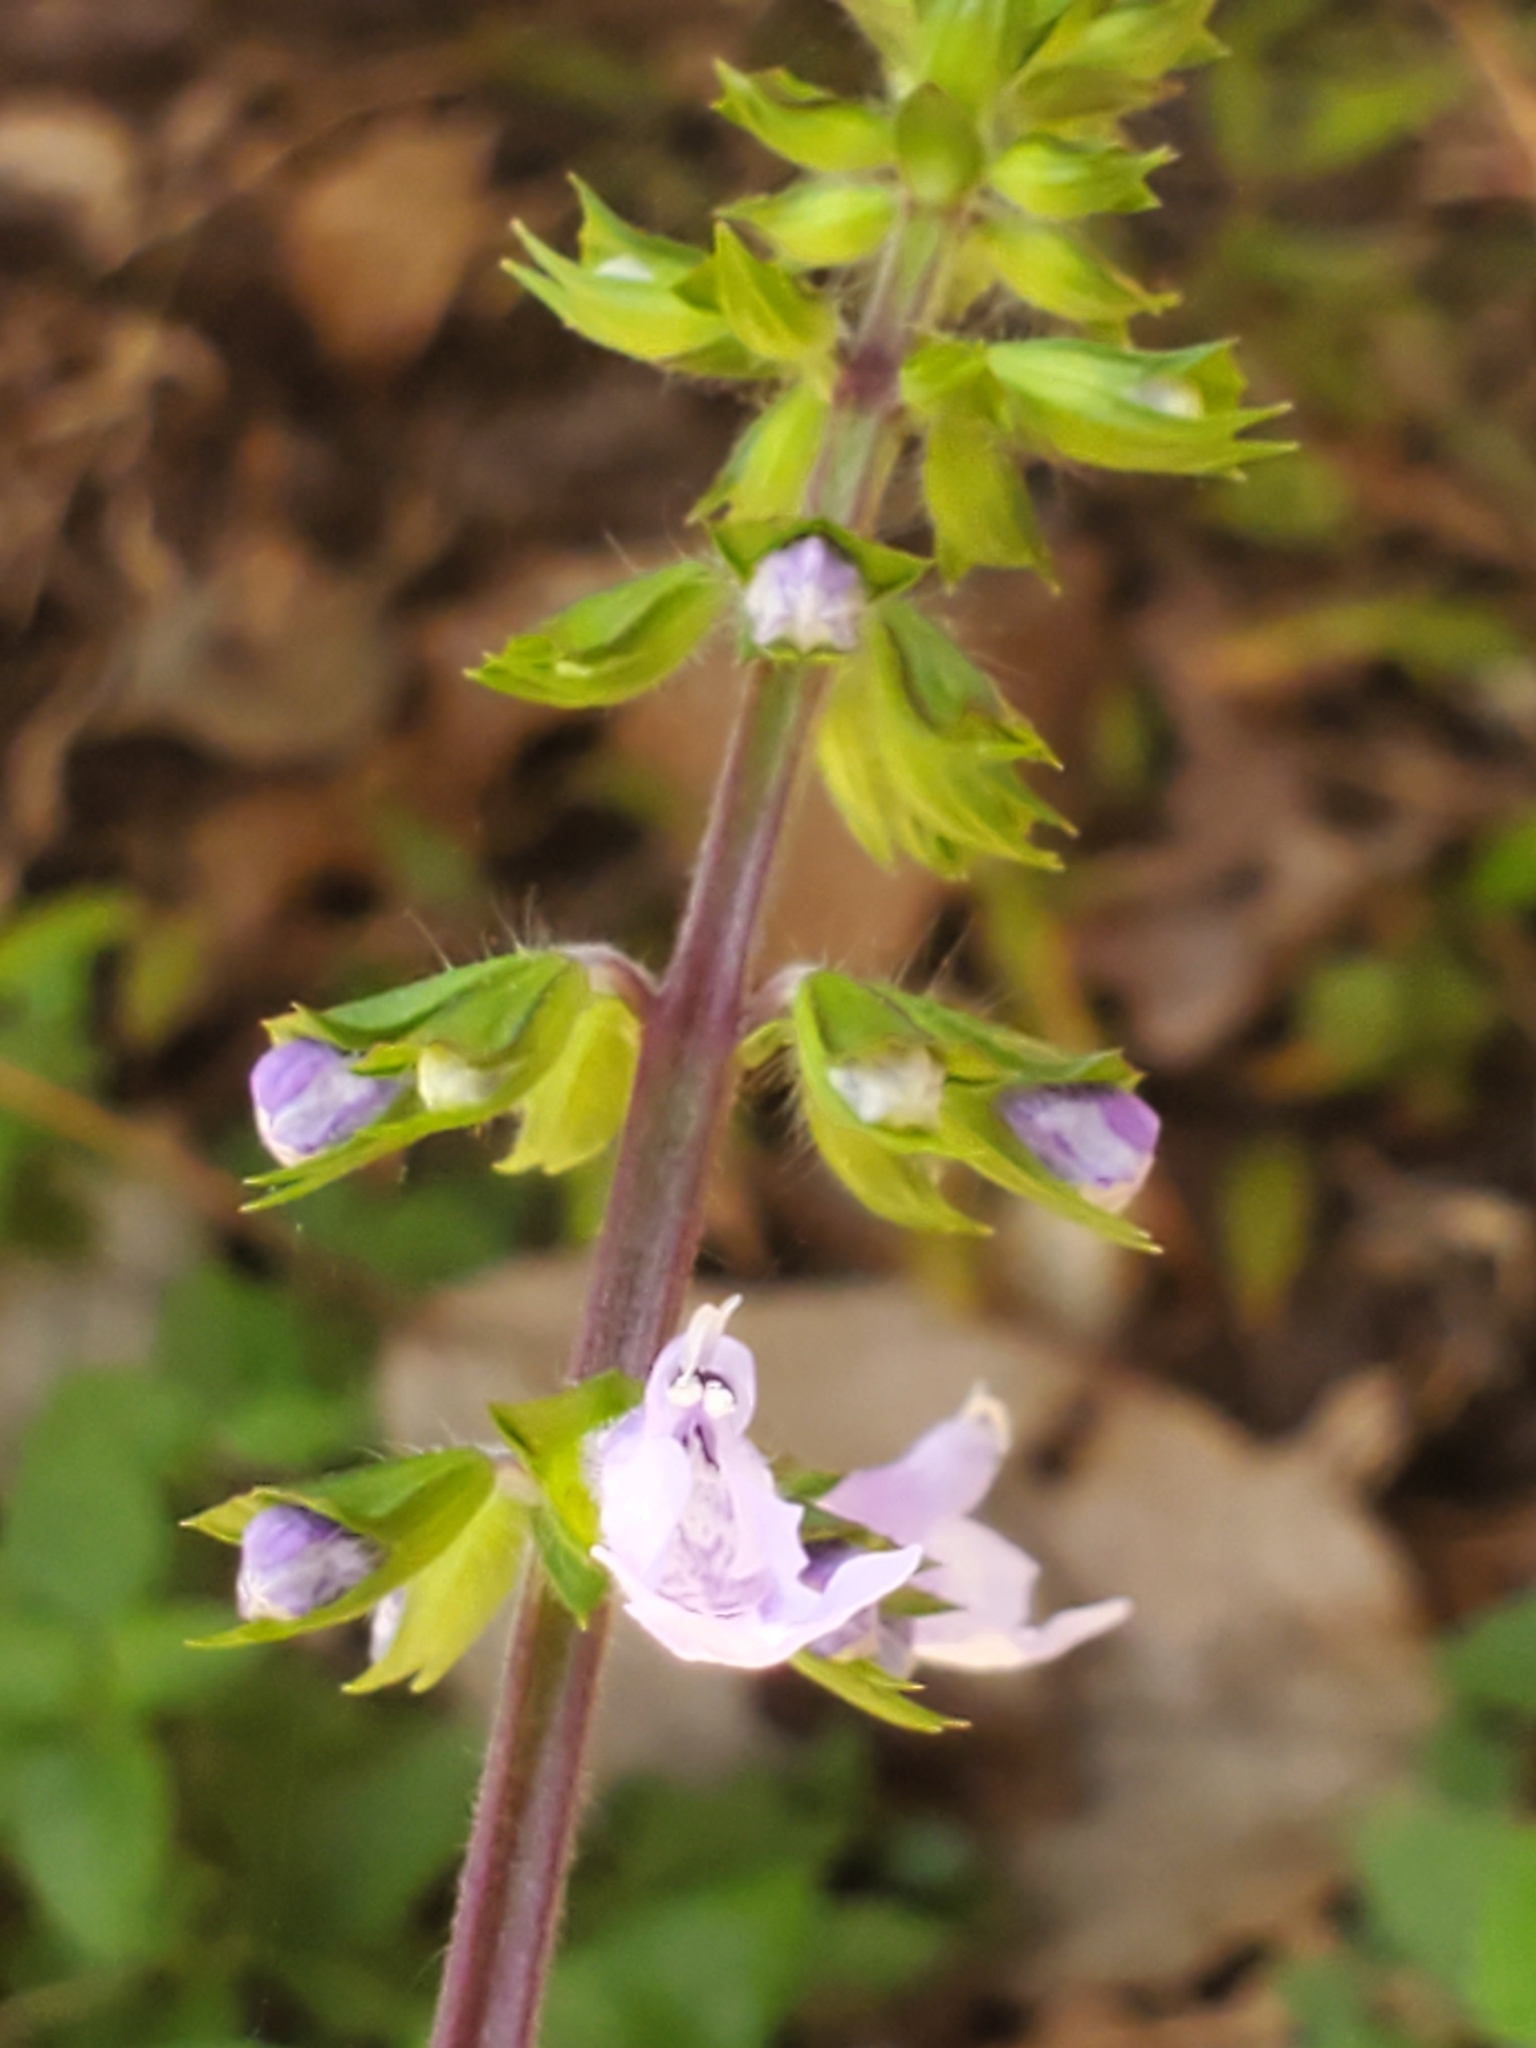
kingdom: Plantae
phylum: Tracheophyta
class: Magnoliopsida
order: Lamiales
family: Lamiaceae
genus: Salvia
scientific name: Salvia lyrata
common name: Cancerweed
